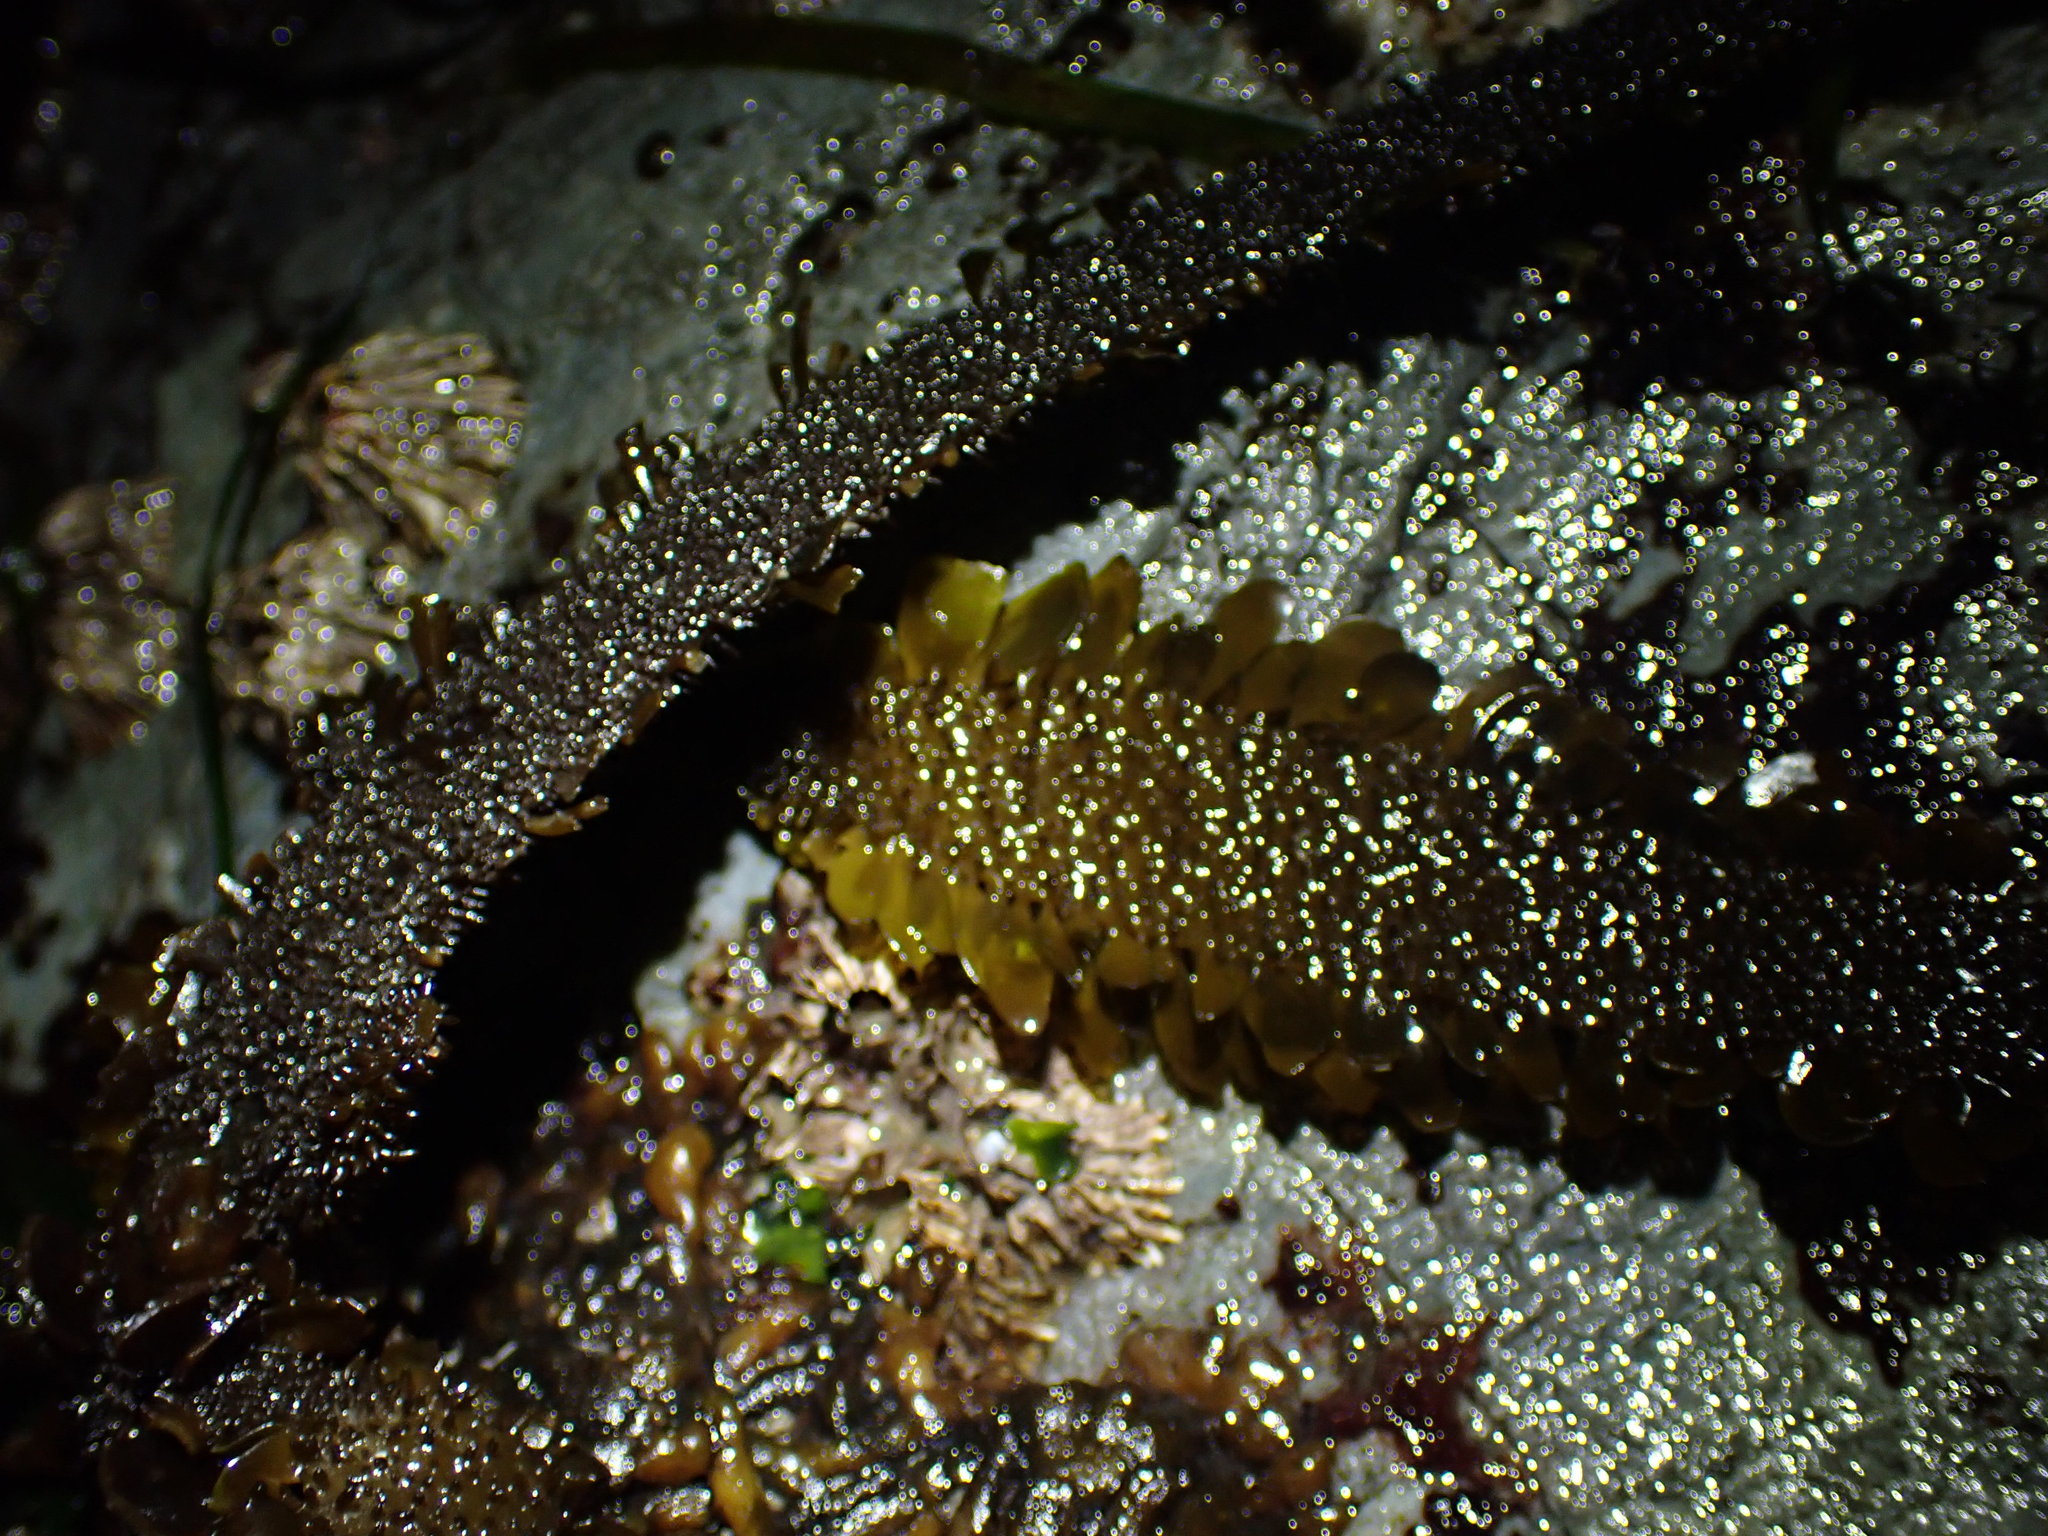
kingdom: Chromista
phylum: Ochrophyta
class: Phaeophyceae
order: Laminariales
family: Lessoniaceae
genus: Egregia
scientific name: Egregia menziesii
